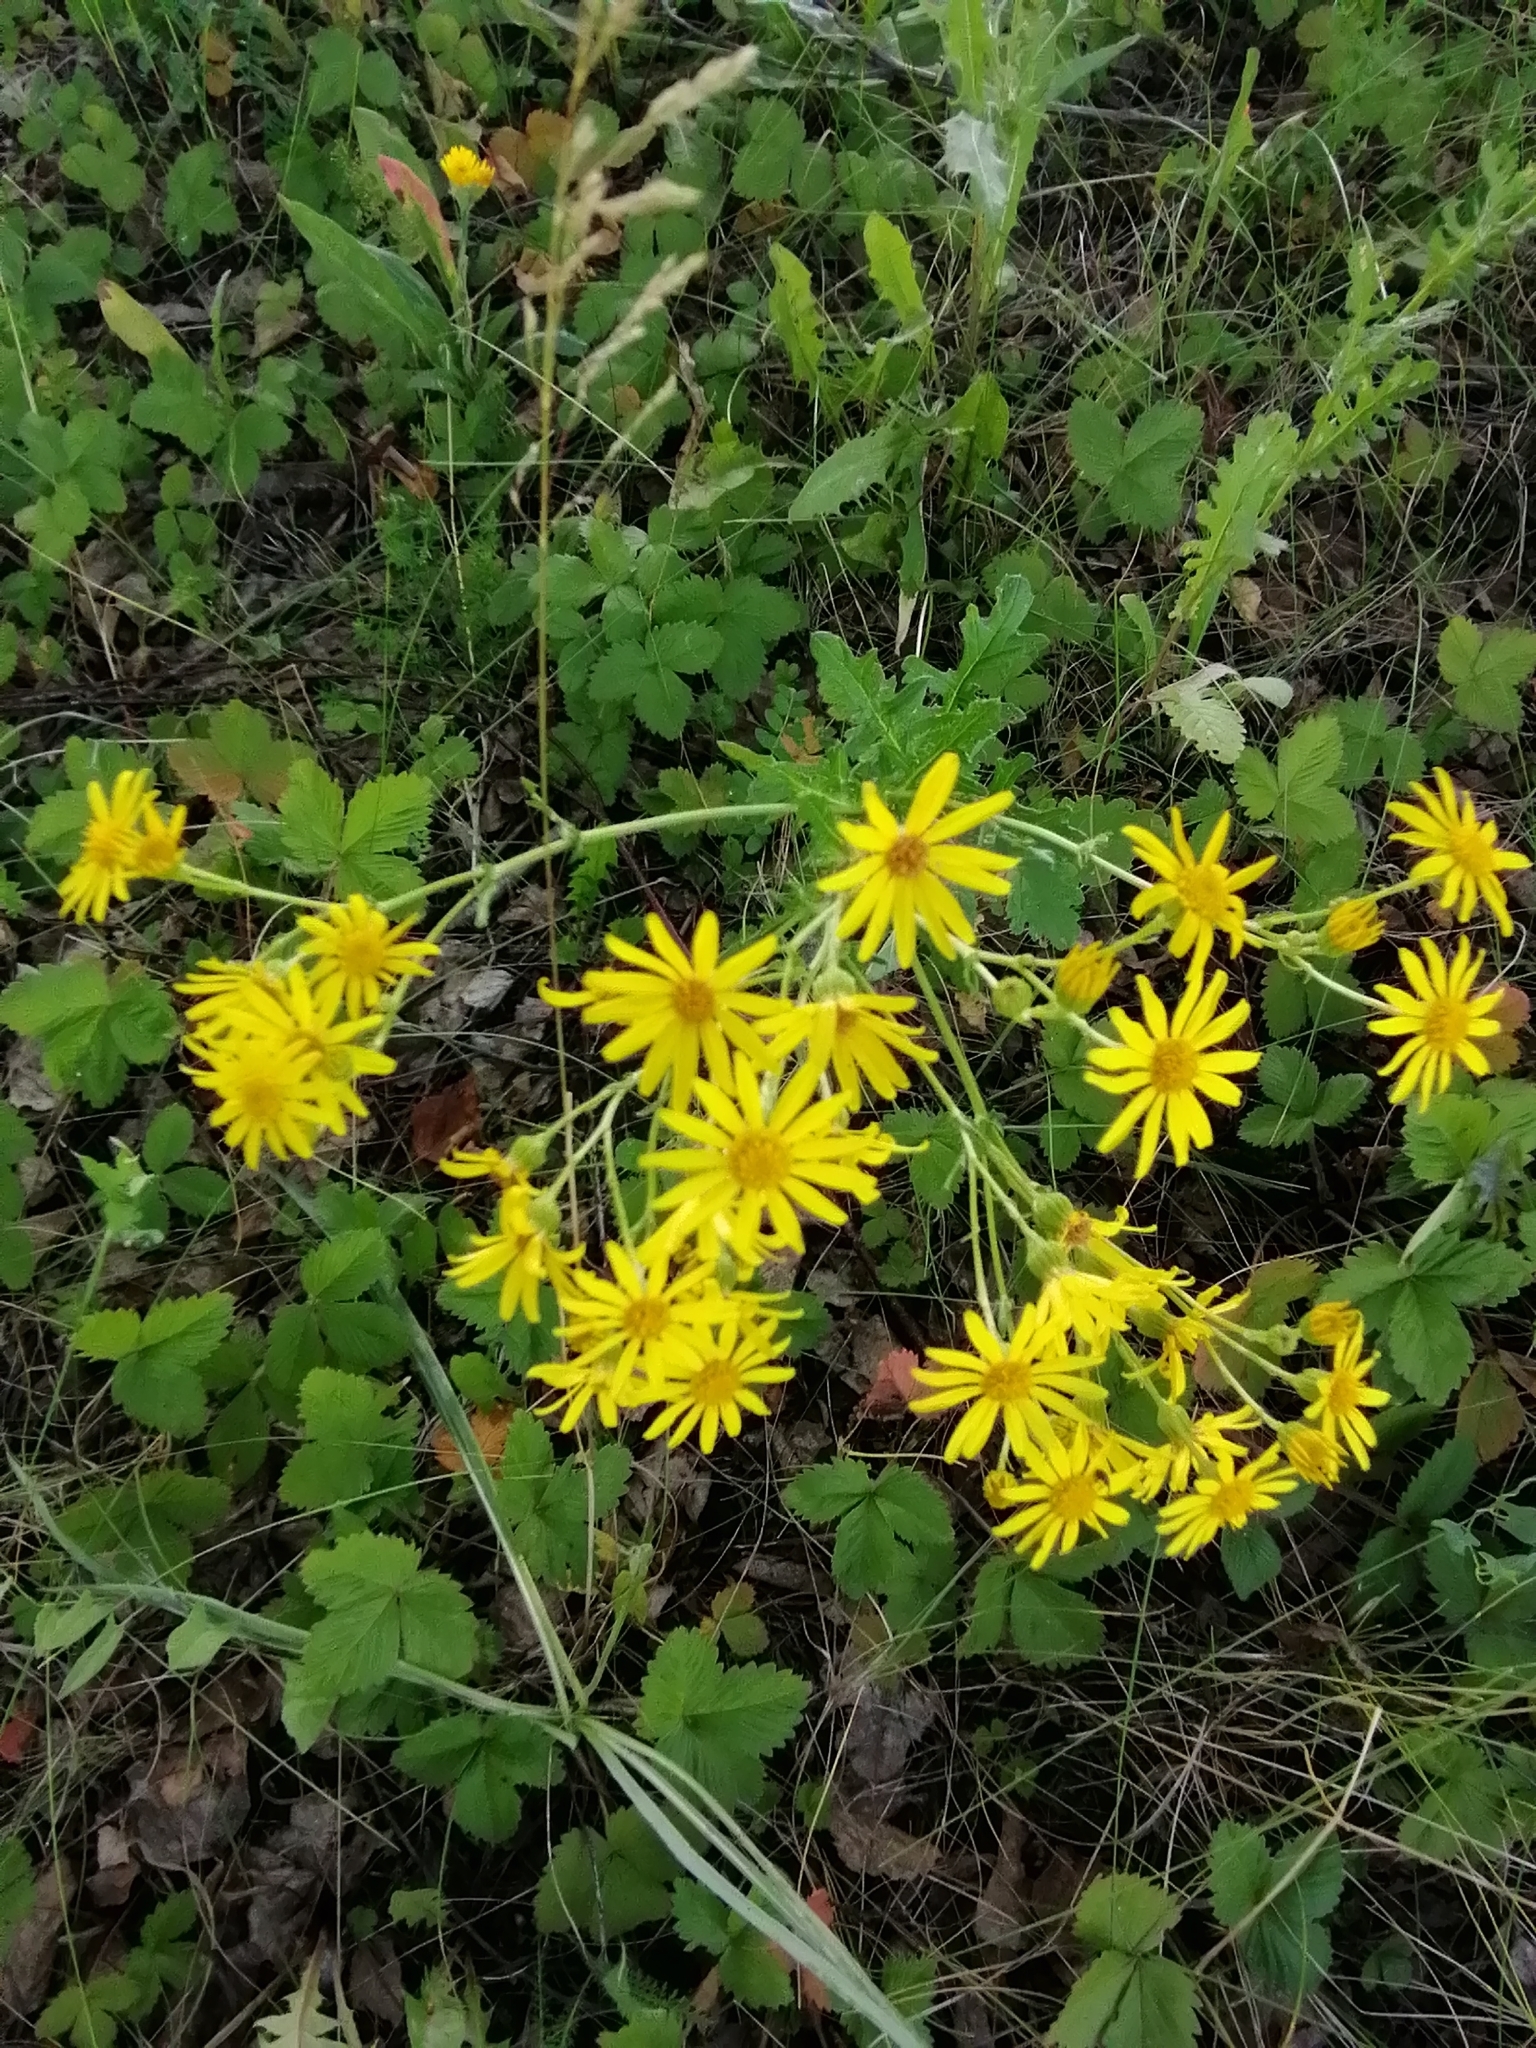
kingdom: Plantae
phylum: Tracheophyta
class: Magnoliopsida
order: Asterales
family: Asteraceae
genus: Jacobaea
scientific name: Jacobaea vulgaris
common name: Stinking willie
